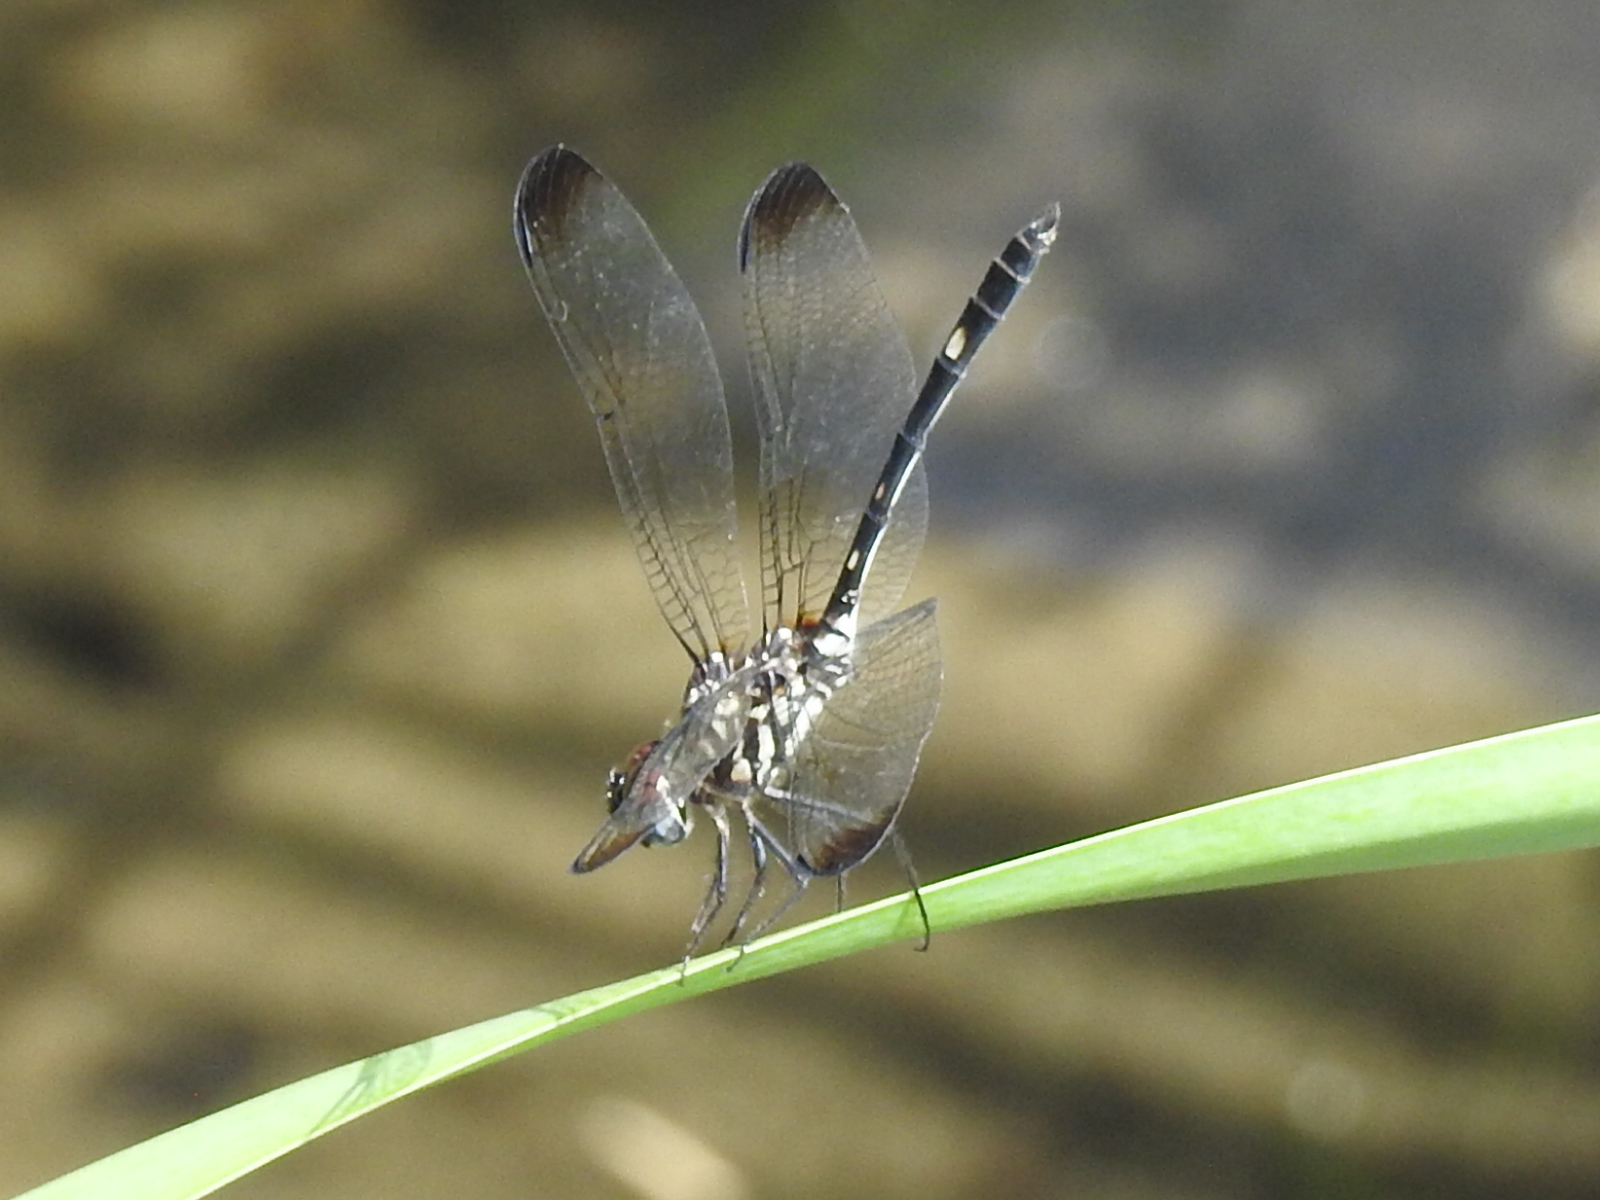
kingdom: Animalia
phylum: Arthropoda
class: Insecta
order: Odonata
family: Libellulidae
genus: Dythemis
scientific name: Dythemis velox
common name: Swift setwing
